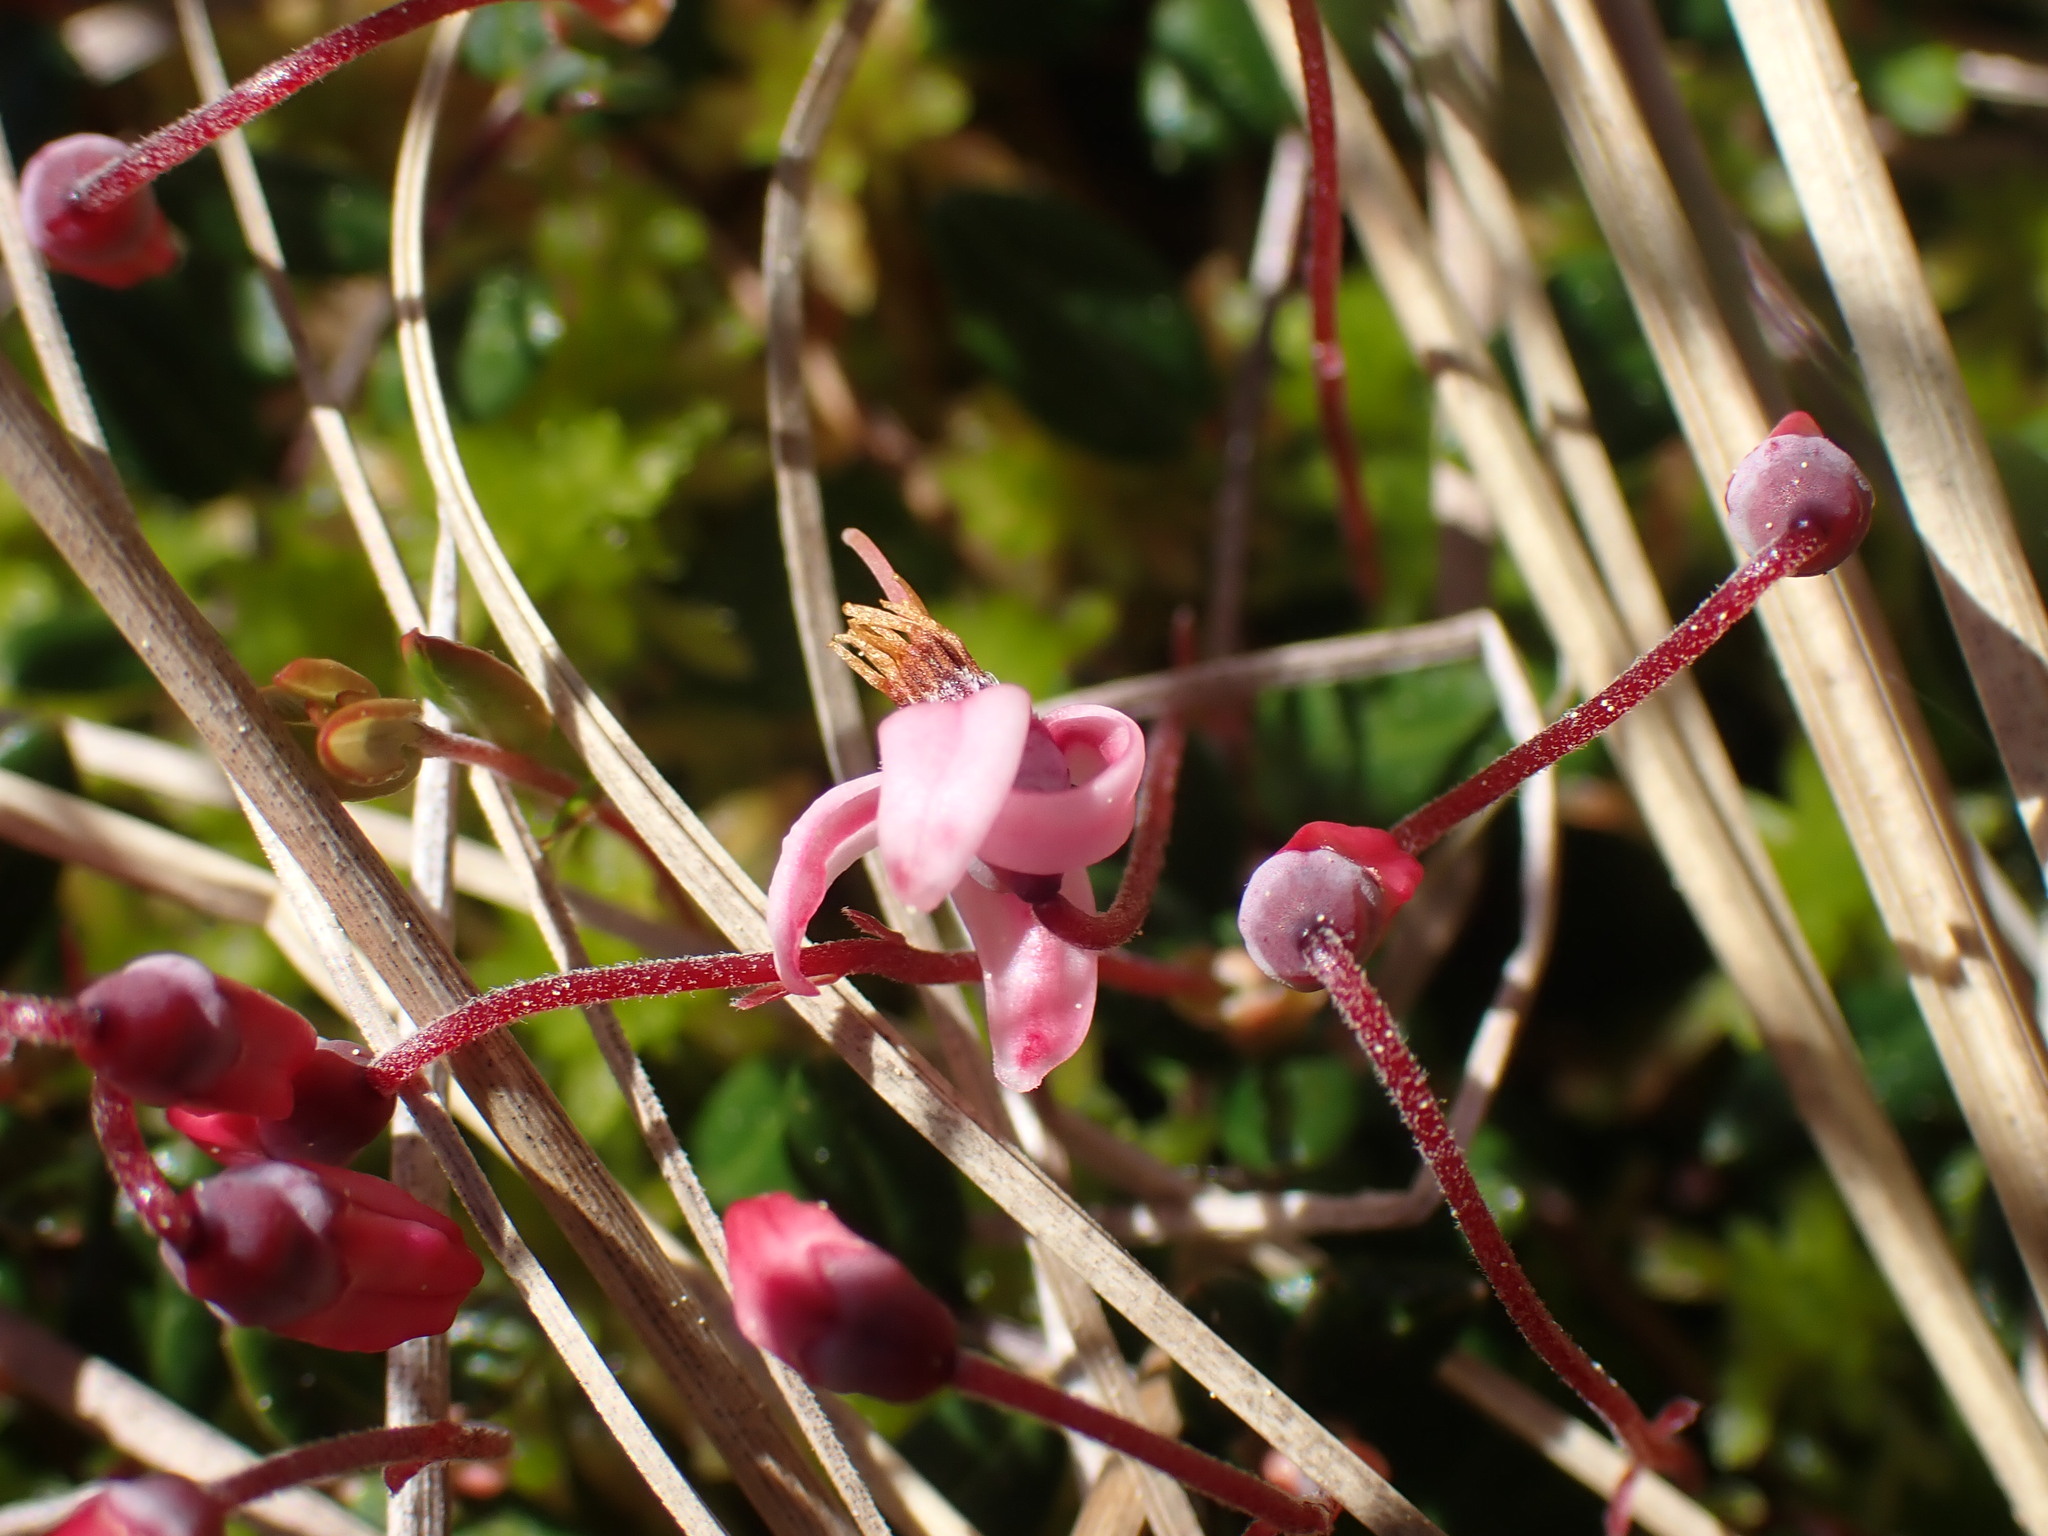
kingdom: Plantae
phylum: Tracheophyta
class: Magnoliopsida
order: Ericales
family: Ericaceae
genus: Vaccinium
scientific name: Vaccinium oxycoccos
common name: Cranberry
